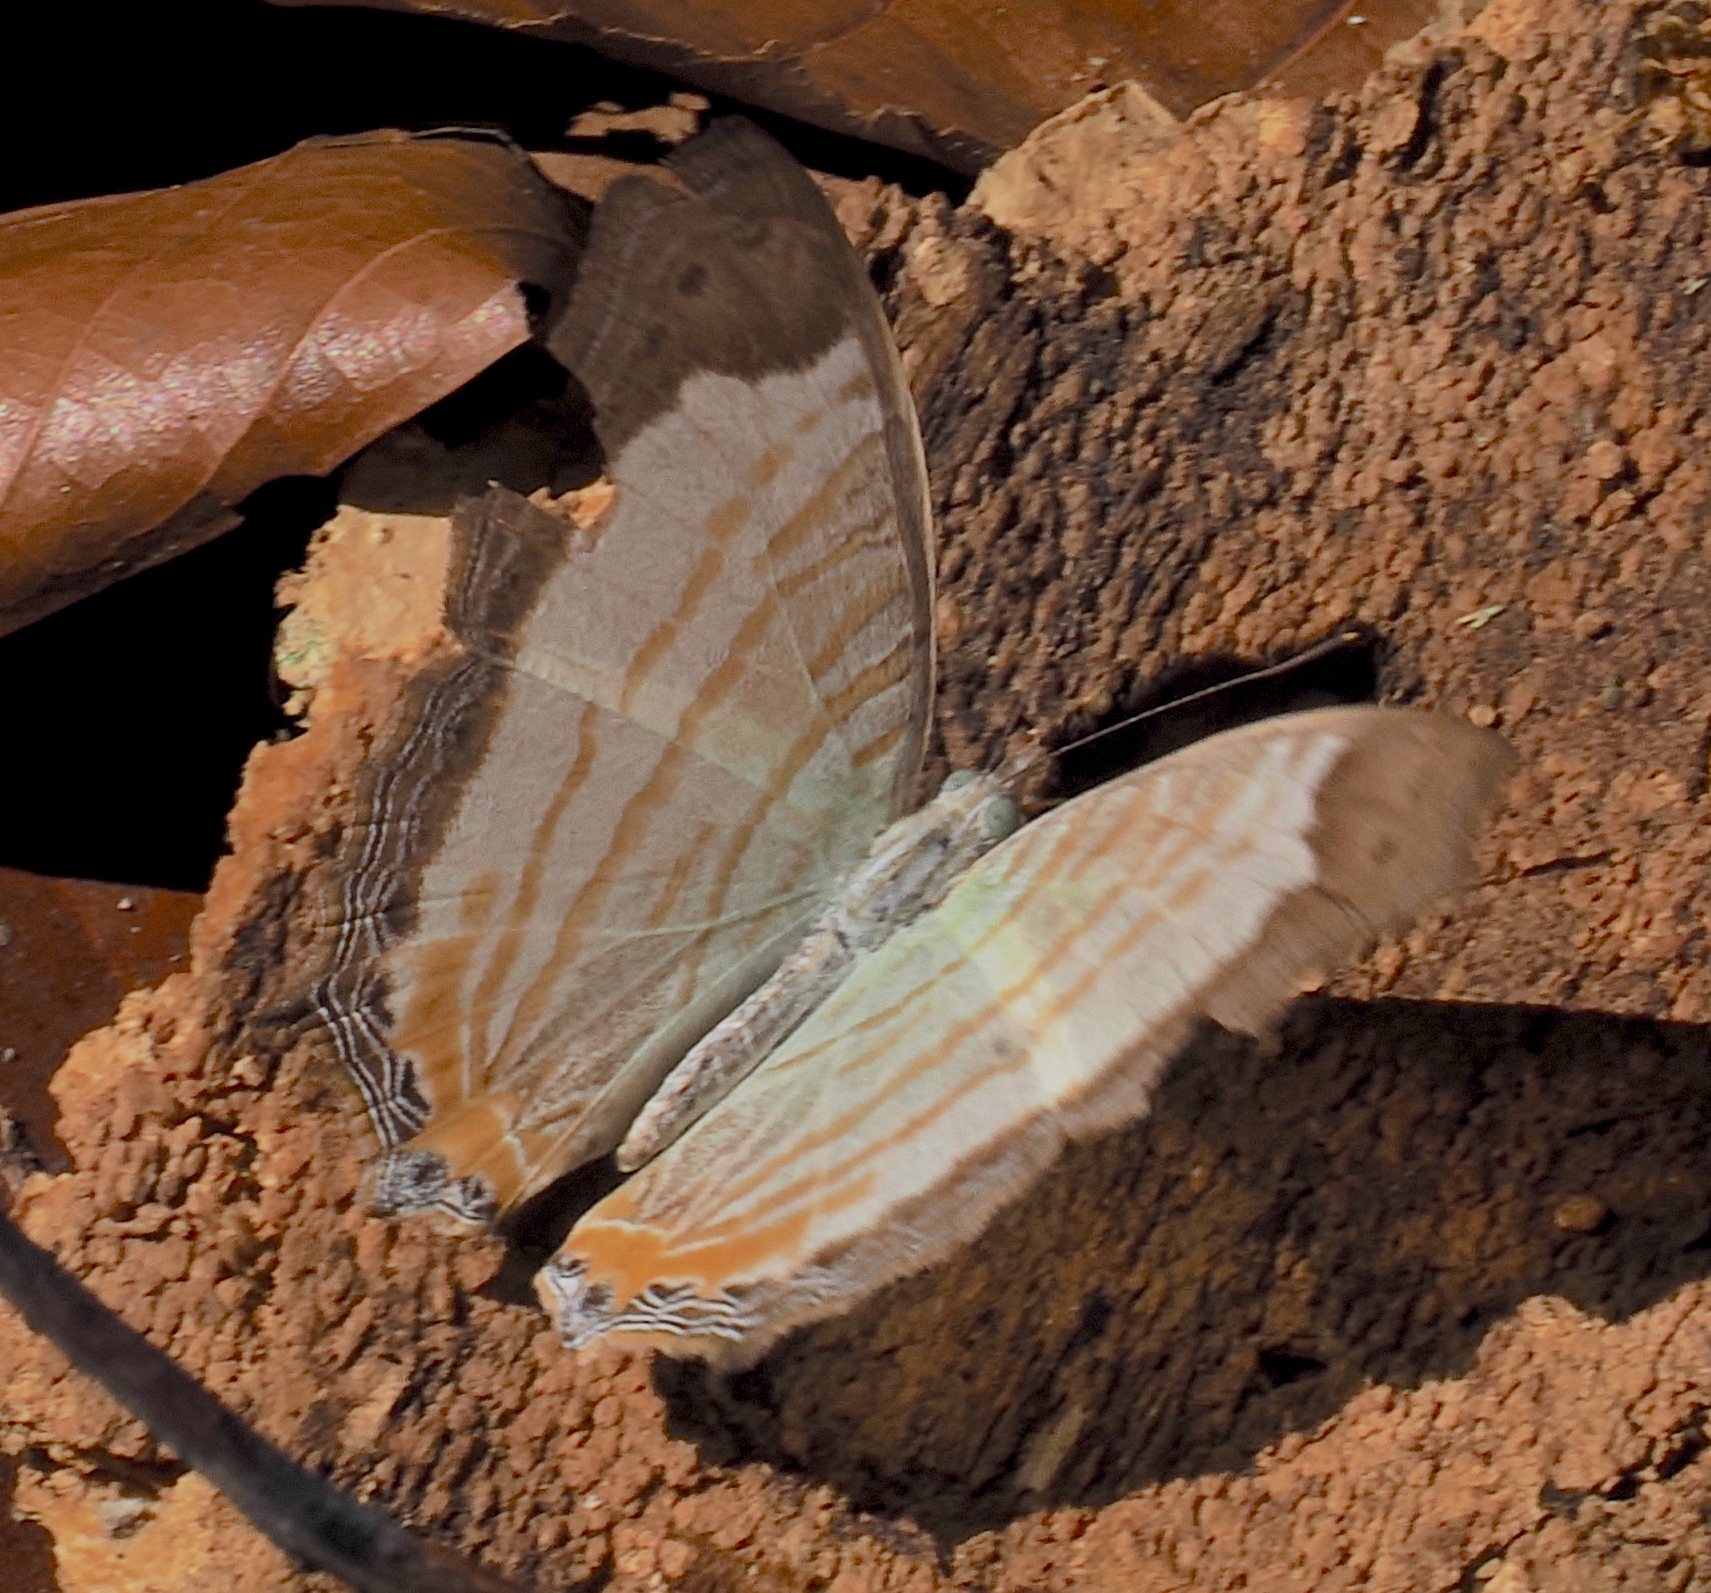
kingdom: Animalia
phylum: Arthropoda
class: Insecta
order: Lepidoptera
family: Nymphalidae
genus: Cyrestis
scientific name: Cyrestis themire
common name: Little mapwing
